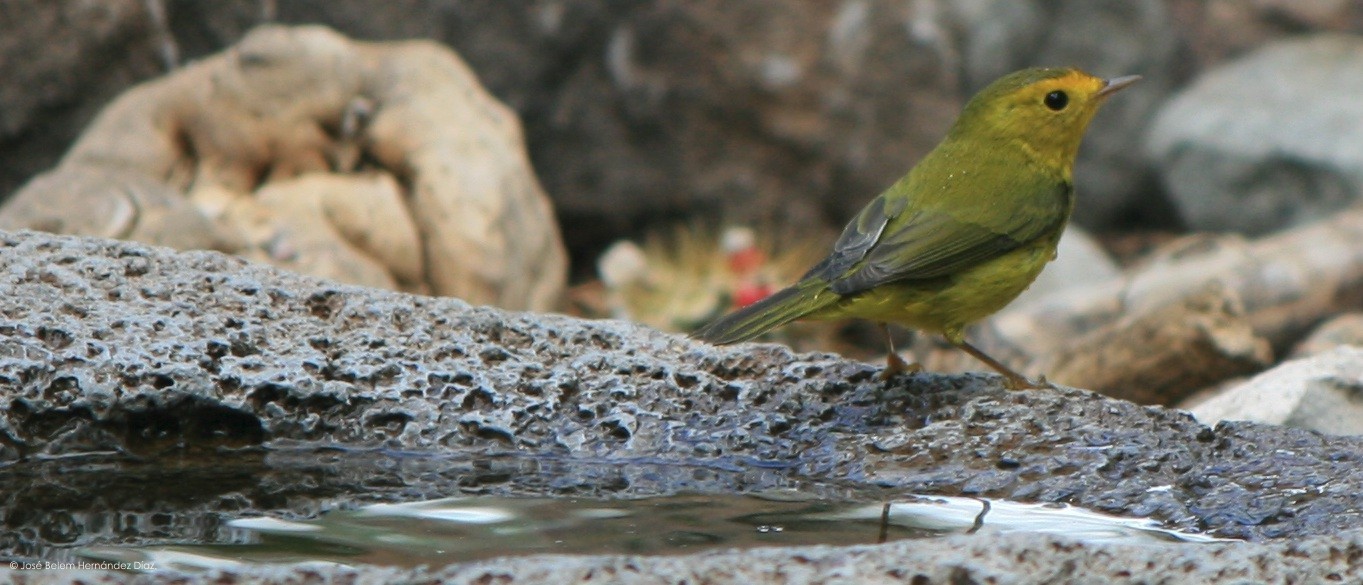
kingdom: Animalia
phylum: Chordata
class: Aves
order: Passeriformes
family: Parulidae
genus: Cardellina
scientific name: Cardellina pusilla
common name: Wilson's warbler
